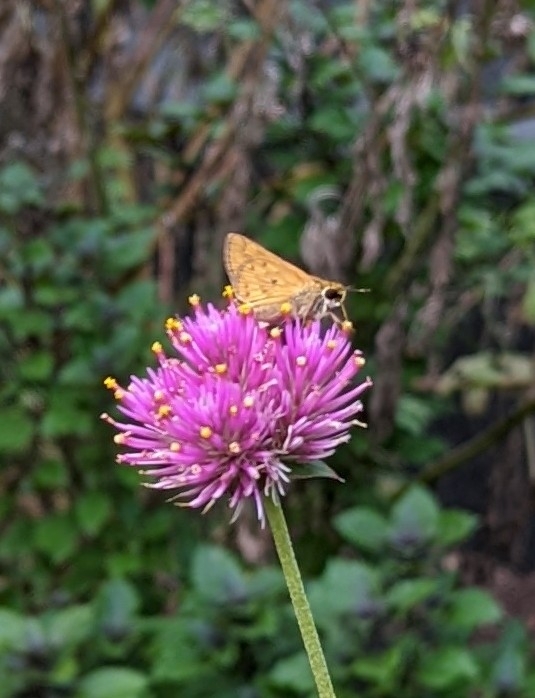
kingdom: Animalia
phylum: Arthropoda
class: Insecta
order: Lepidoptera
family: Hesperiidae
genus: Hylephila
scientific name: Hylephila phyleus
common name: Fiery skipper
